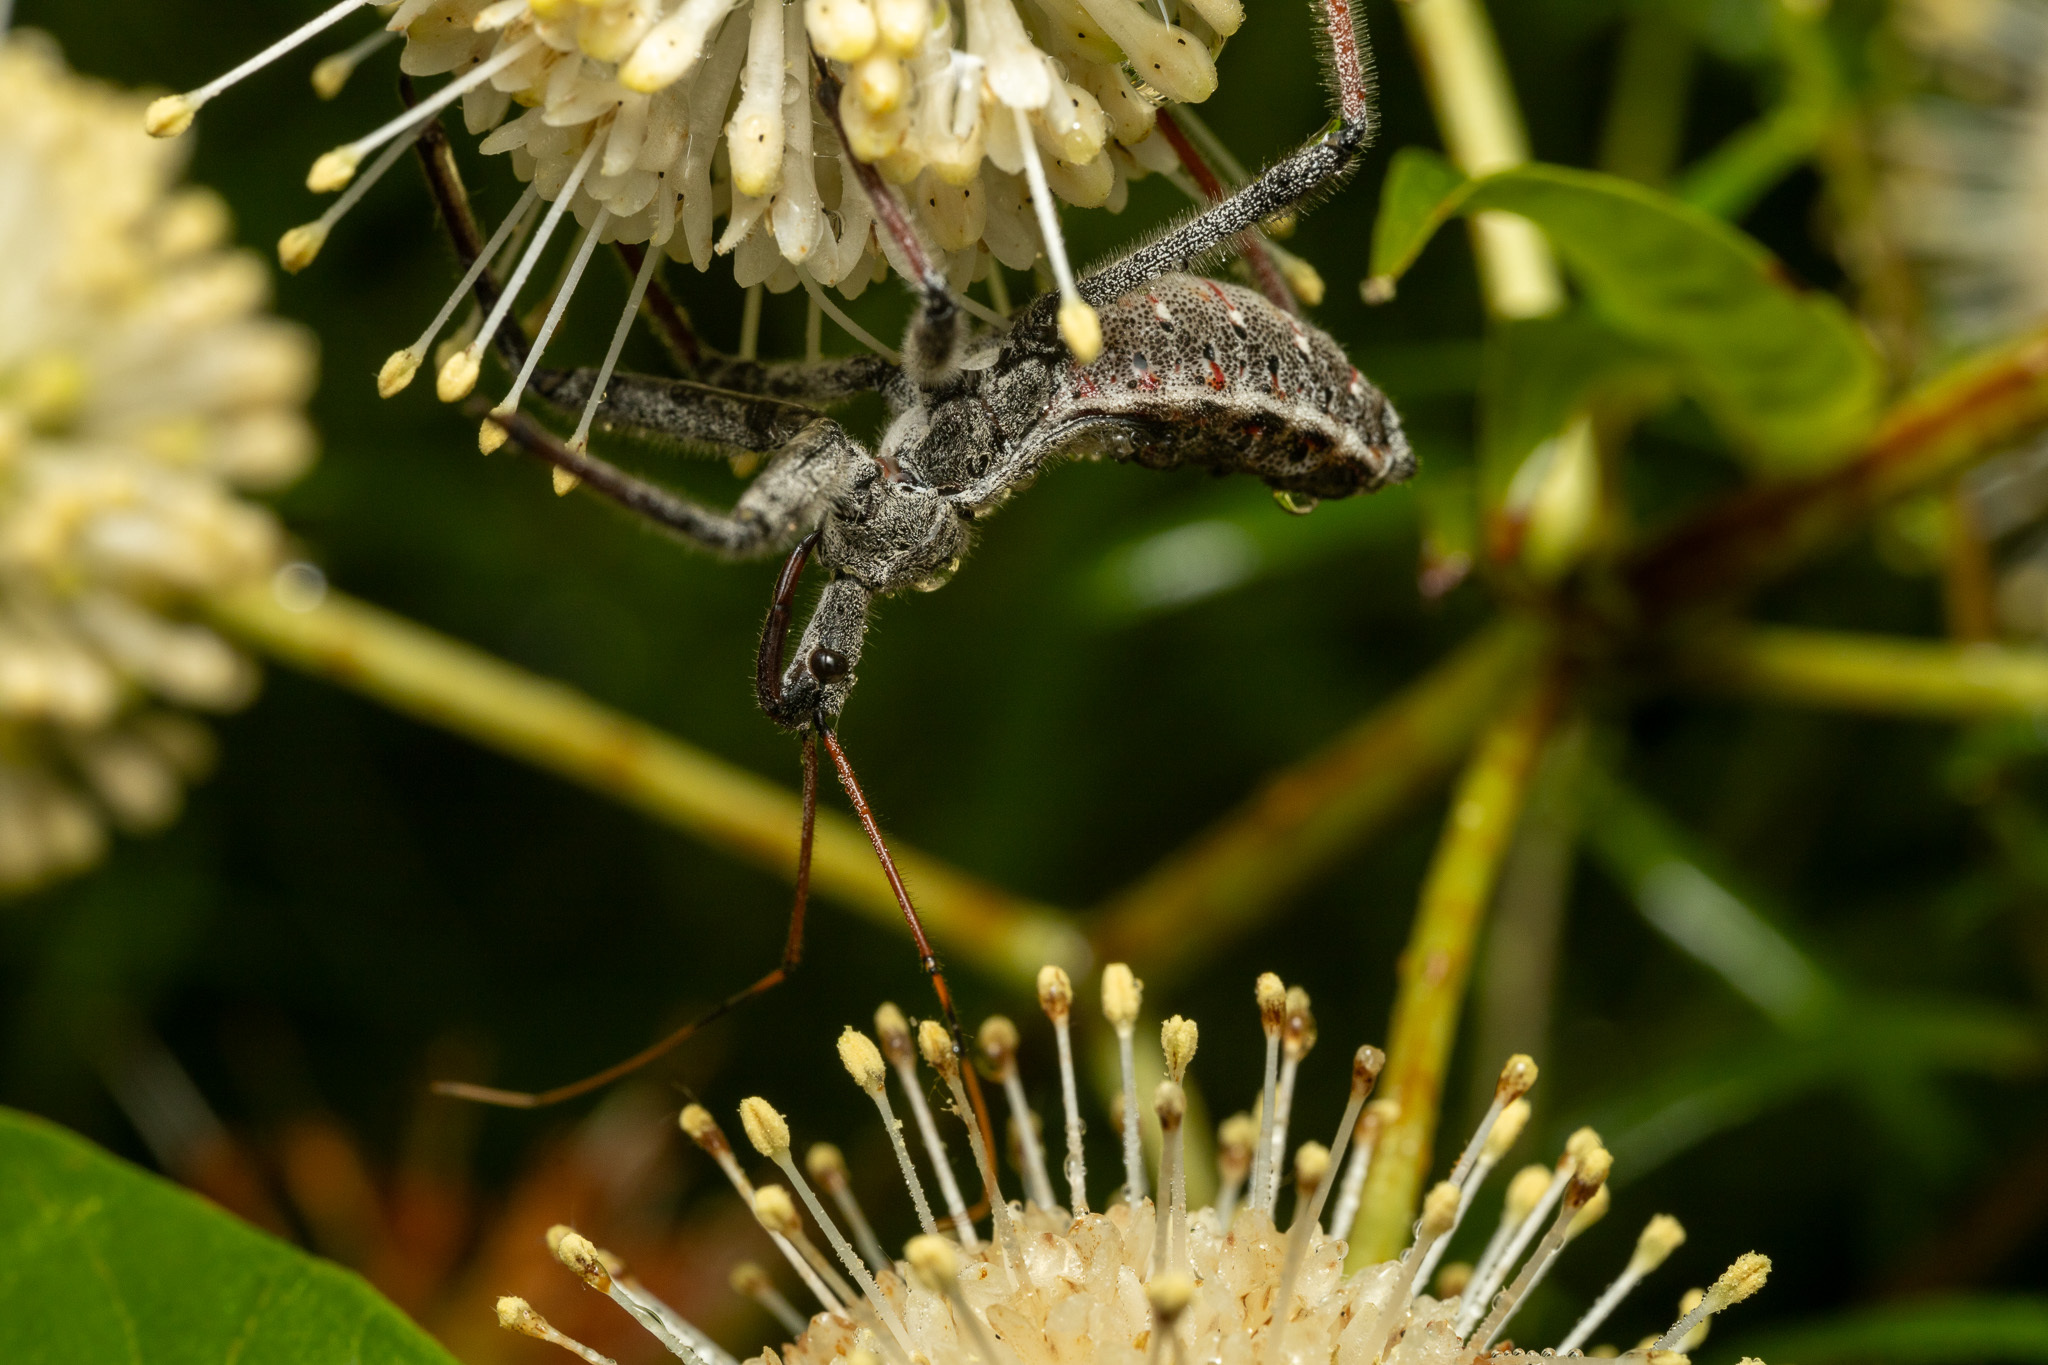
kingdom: Animalia
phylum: Arthropoda
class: Insecta
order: Hemiptera
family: Reduviidae
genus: Arilus
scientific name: Arilus cristatus
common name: North american wheel bug
